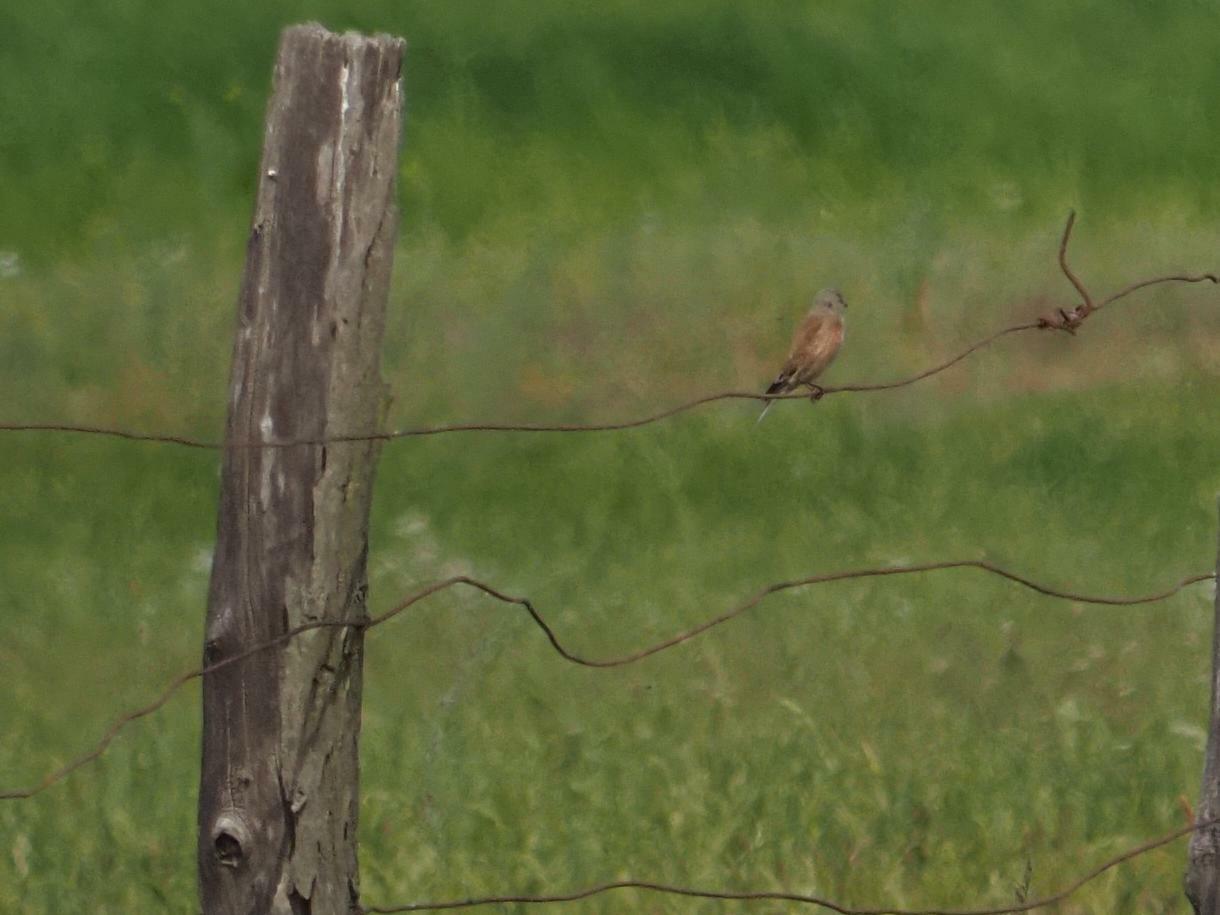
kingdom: Animalia
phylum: Chordata
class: Aves
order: Passeriformes
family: Fringillidae
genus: Linaria
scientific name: Linaria cannabina
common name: Common linnet
